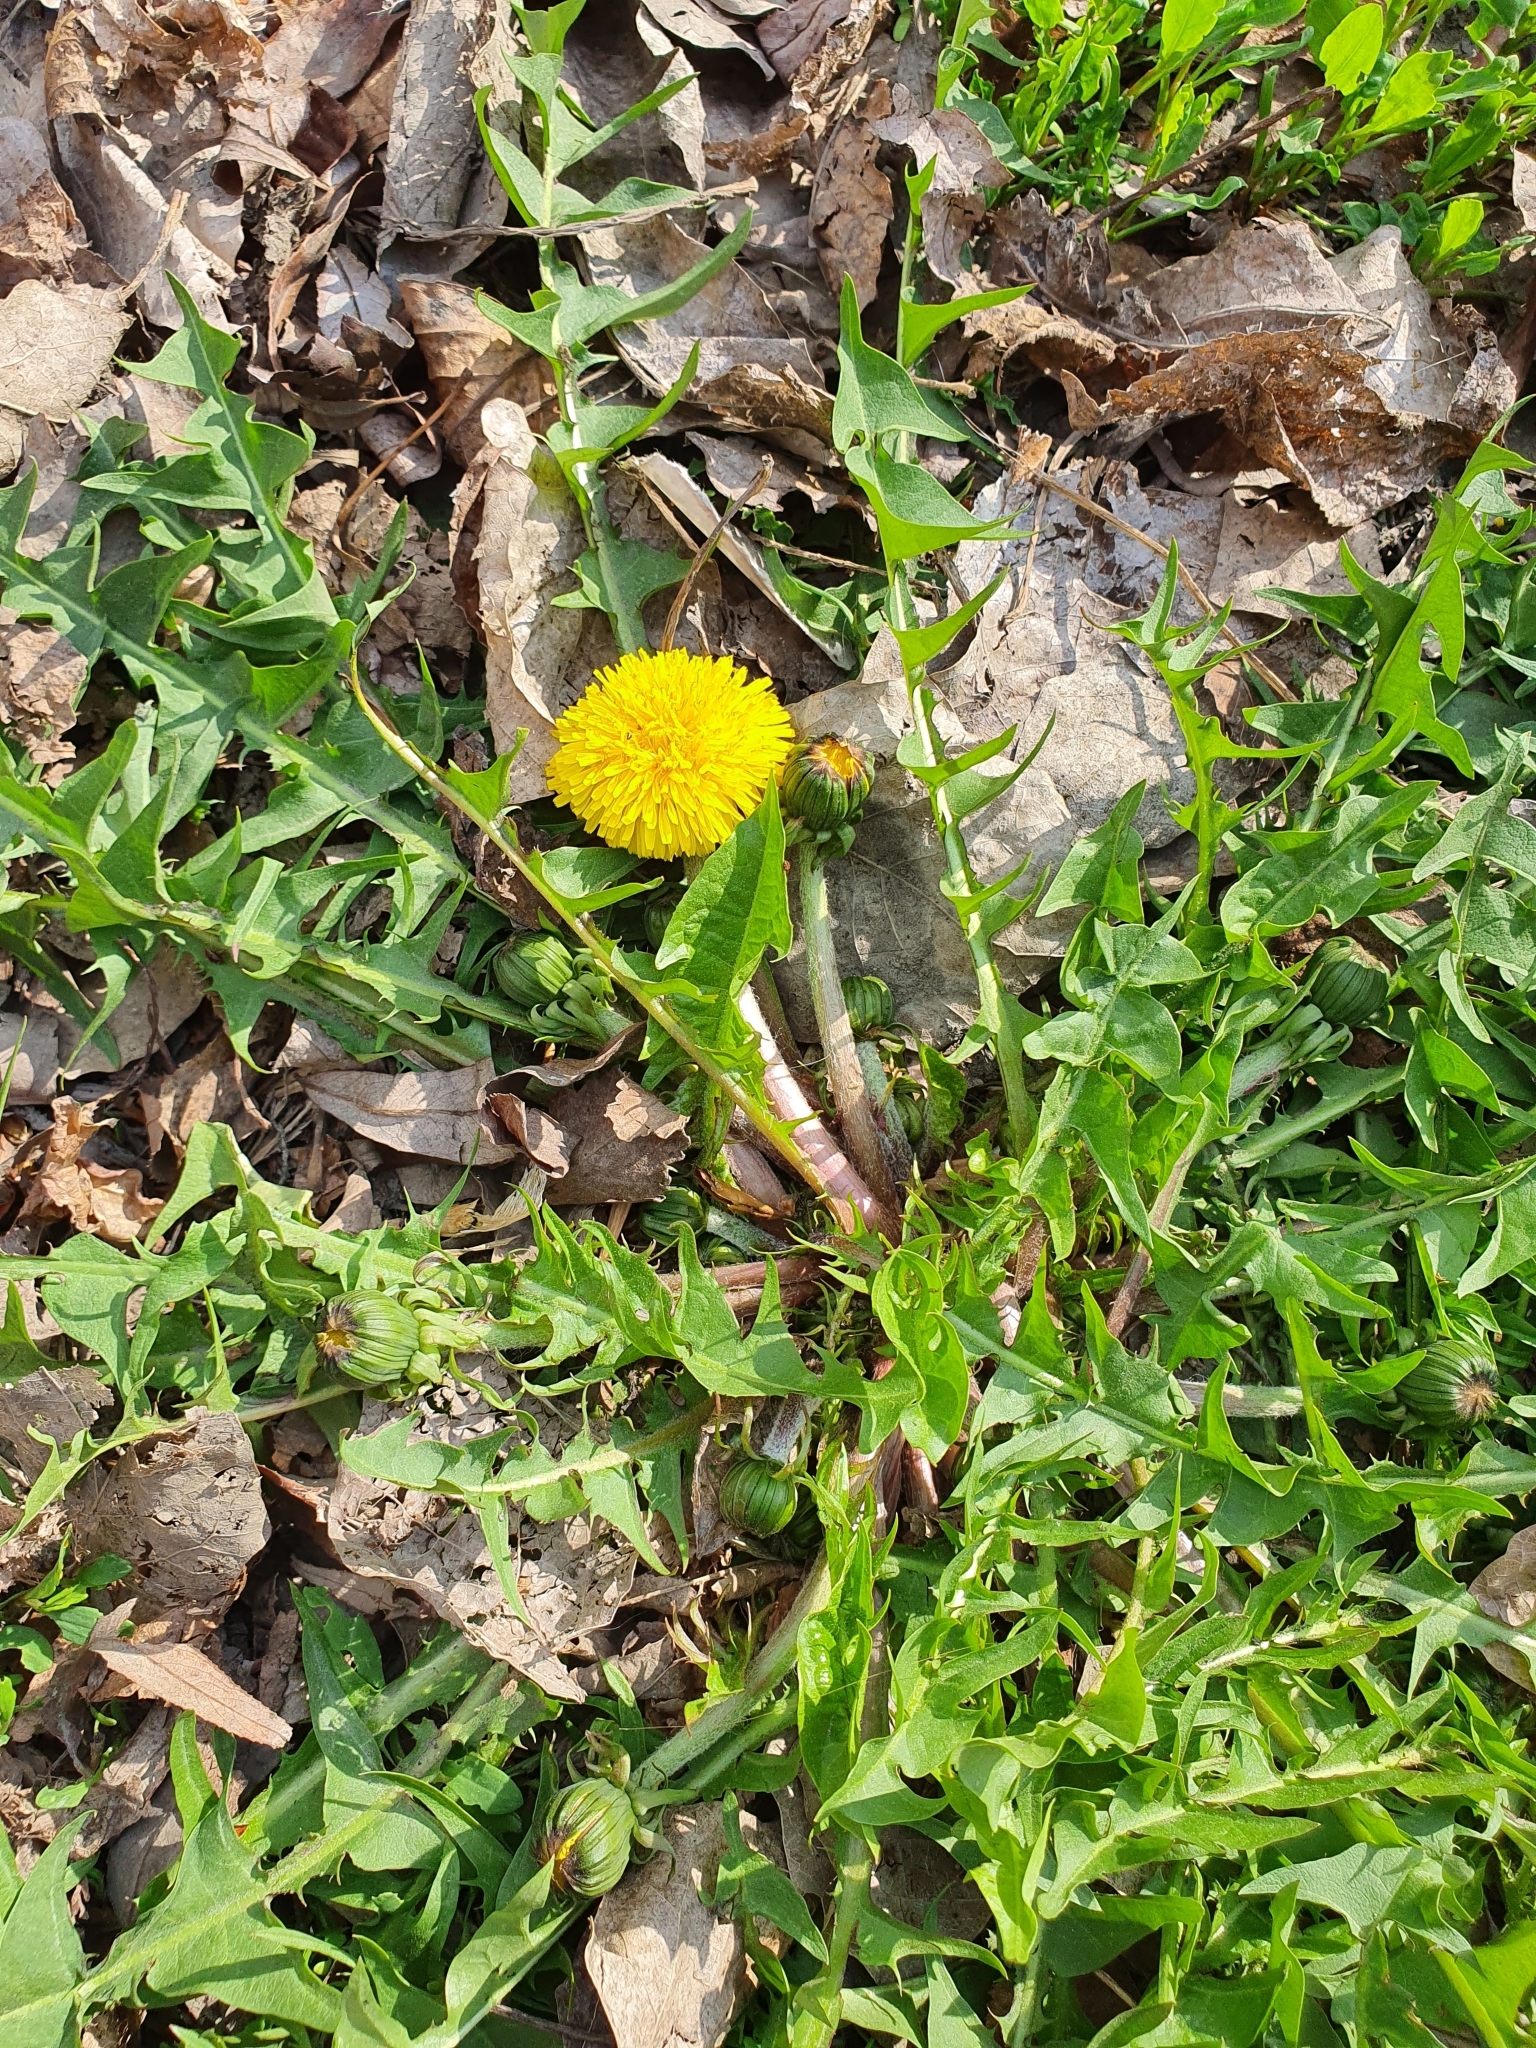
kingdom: Plantae
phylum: Tracheophyta
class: Magnoliopsida
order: Asterales
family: Asteraceae
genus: Taraxacum
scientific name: Taraxacum officinale
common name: Common dandelion
